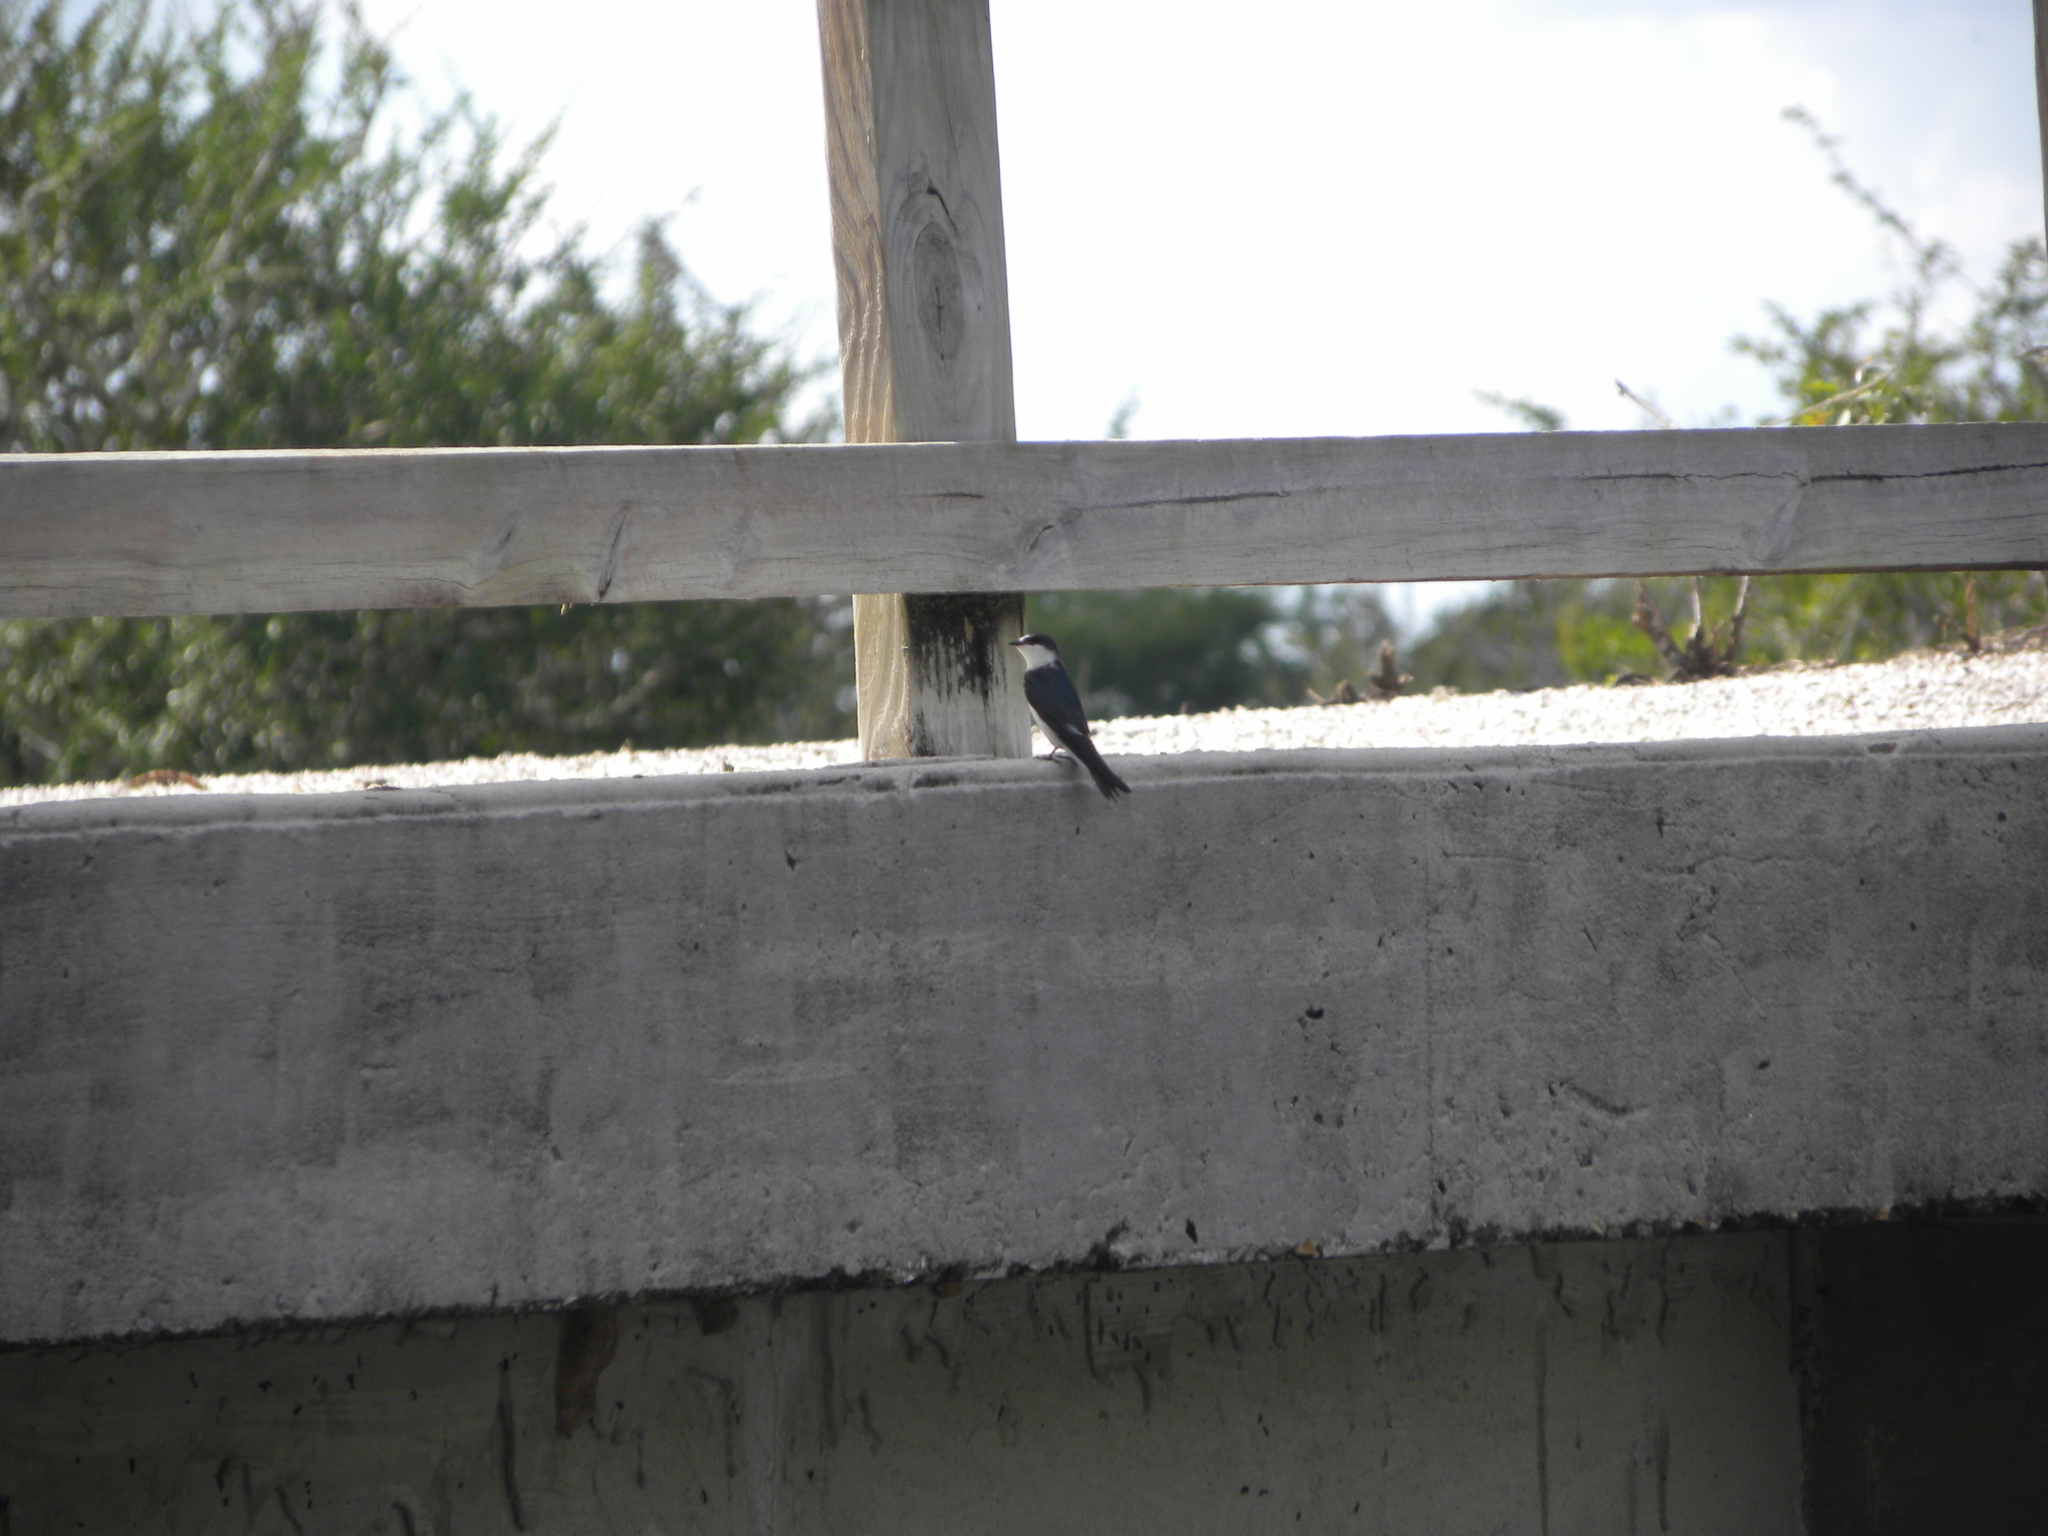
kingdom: Animalia
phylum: Chordata
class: Aves
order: Passeriformes
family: Hirundinidae
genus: Tachycineta
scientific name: Tachycineta albilinea
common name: Mangrove swallow
